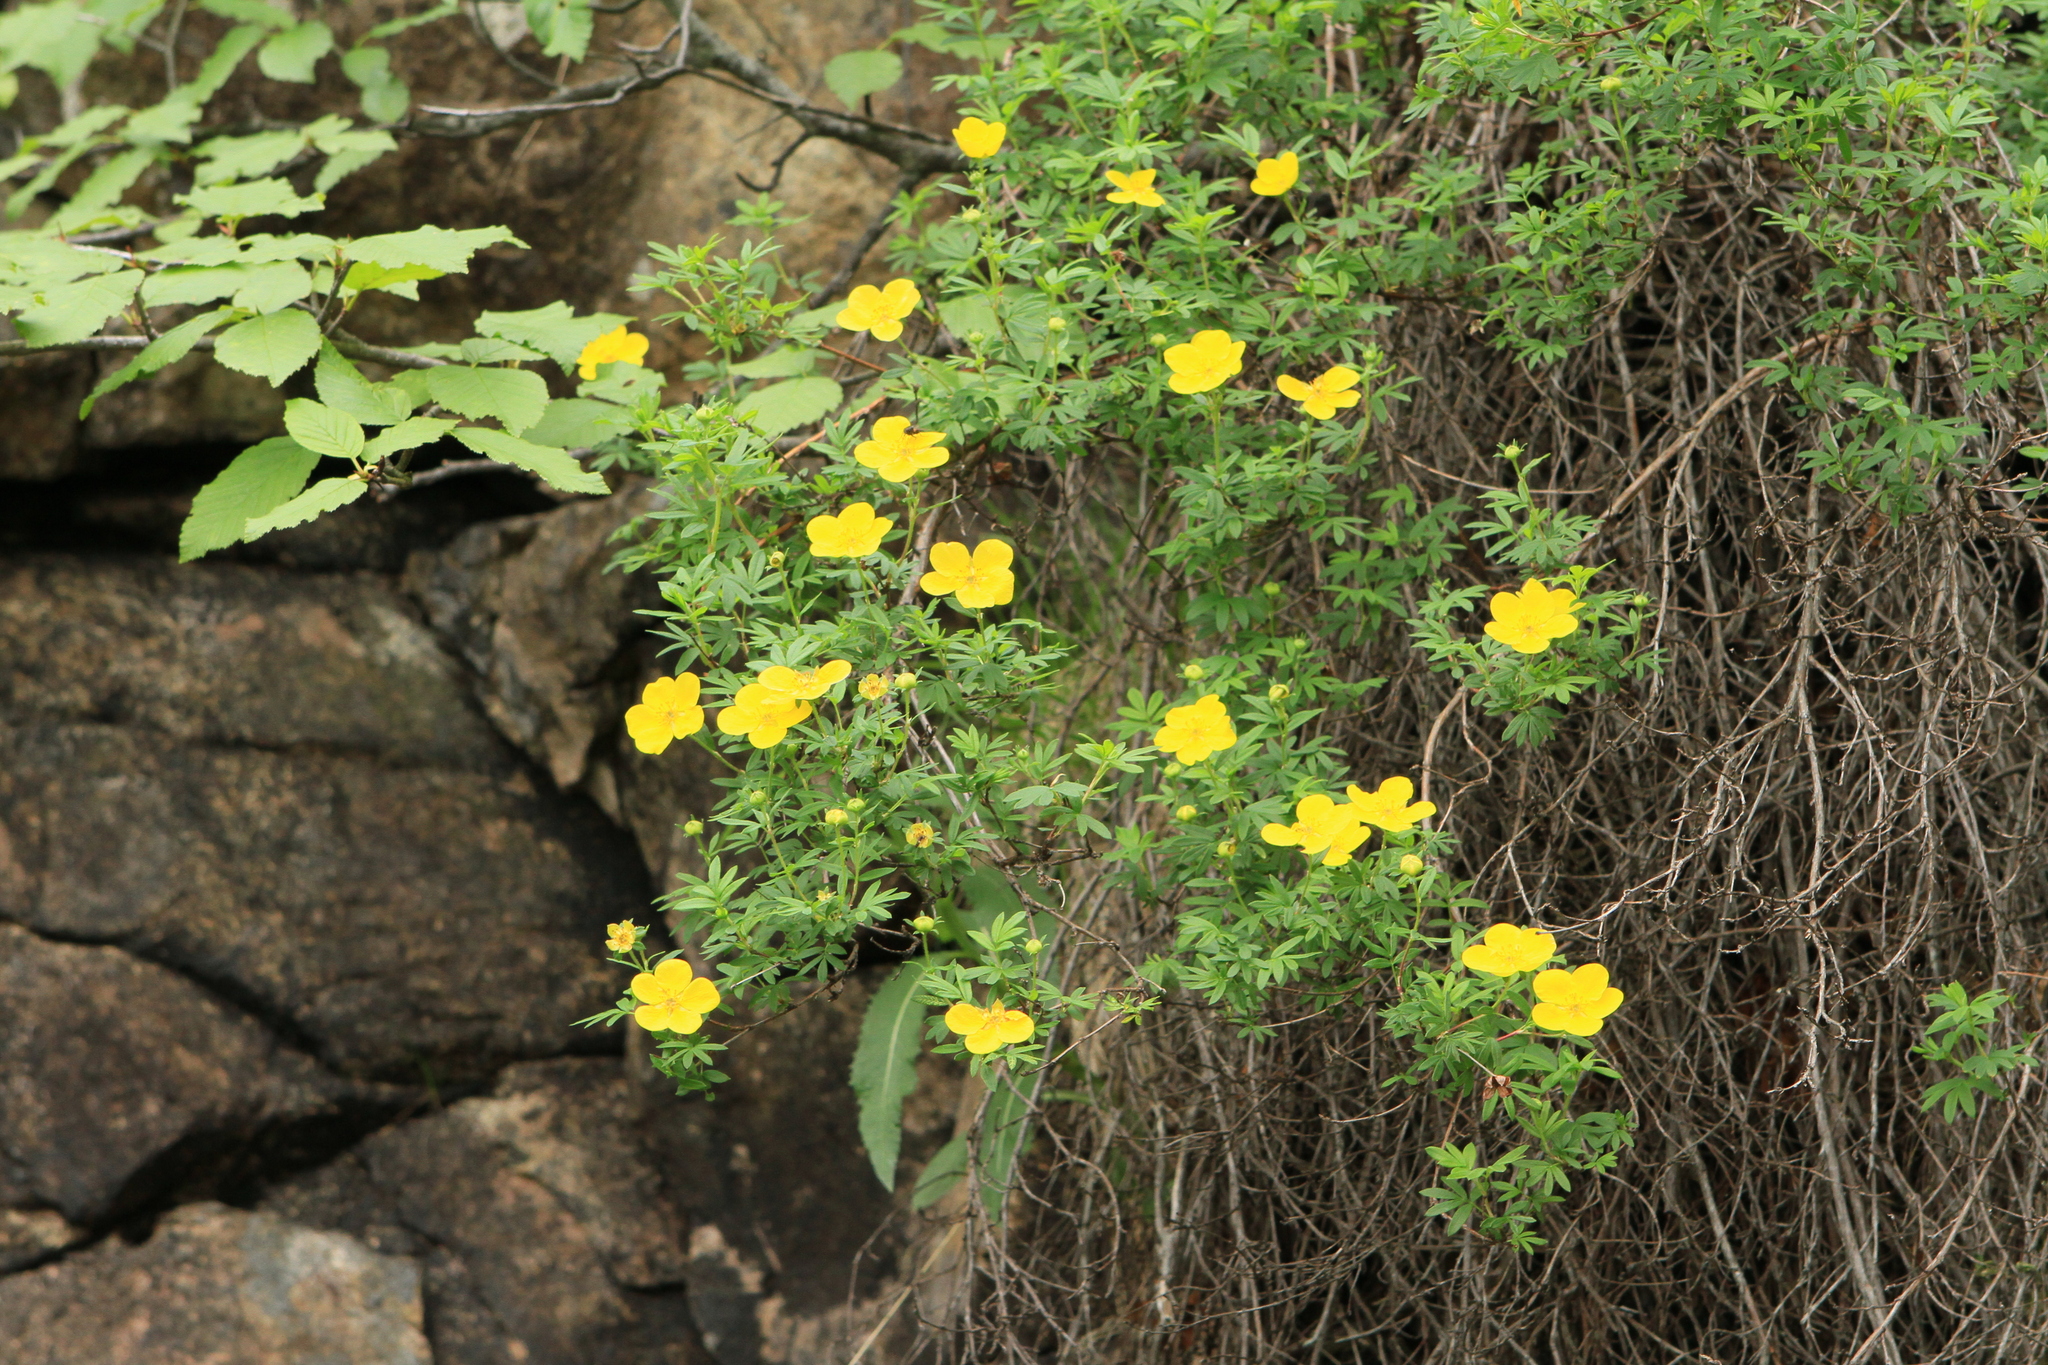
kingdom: Plantae
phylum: Tracheophyta
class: Magnoliopsida
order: Rosales
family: Rosaceae
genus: Dasiphora
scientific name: Dasiphora fruticosa
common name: Shrubby cinquefoil
